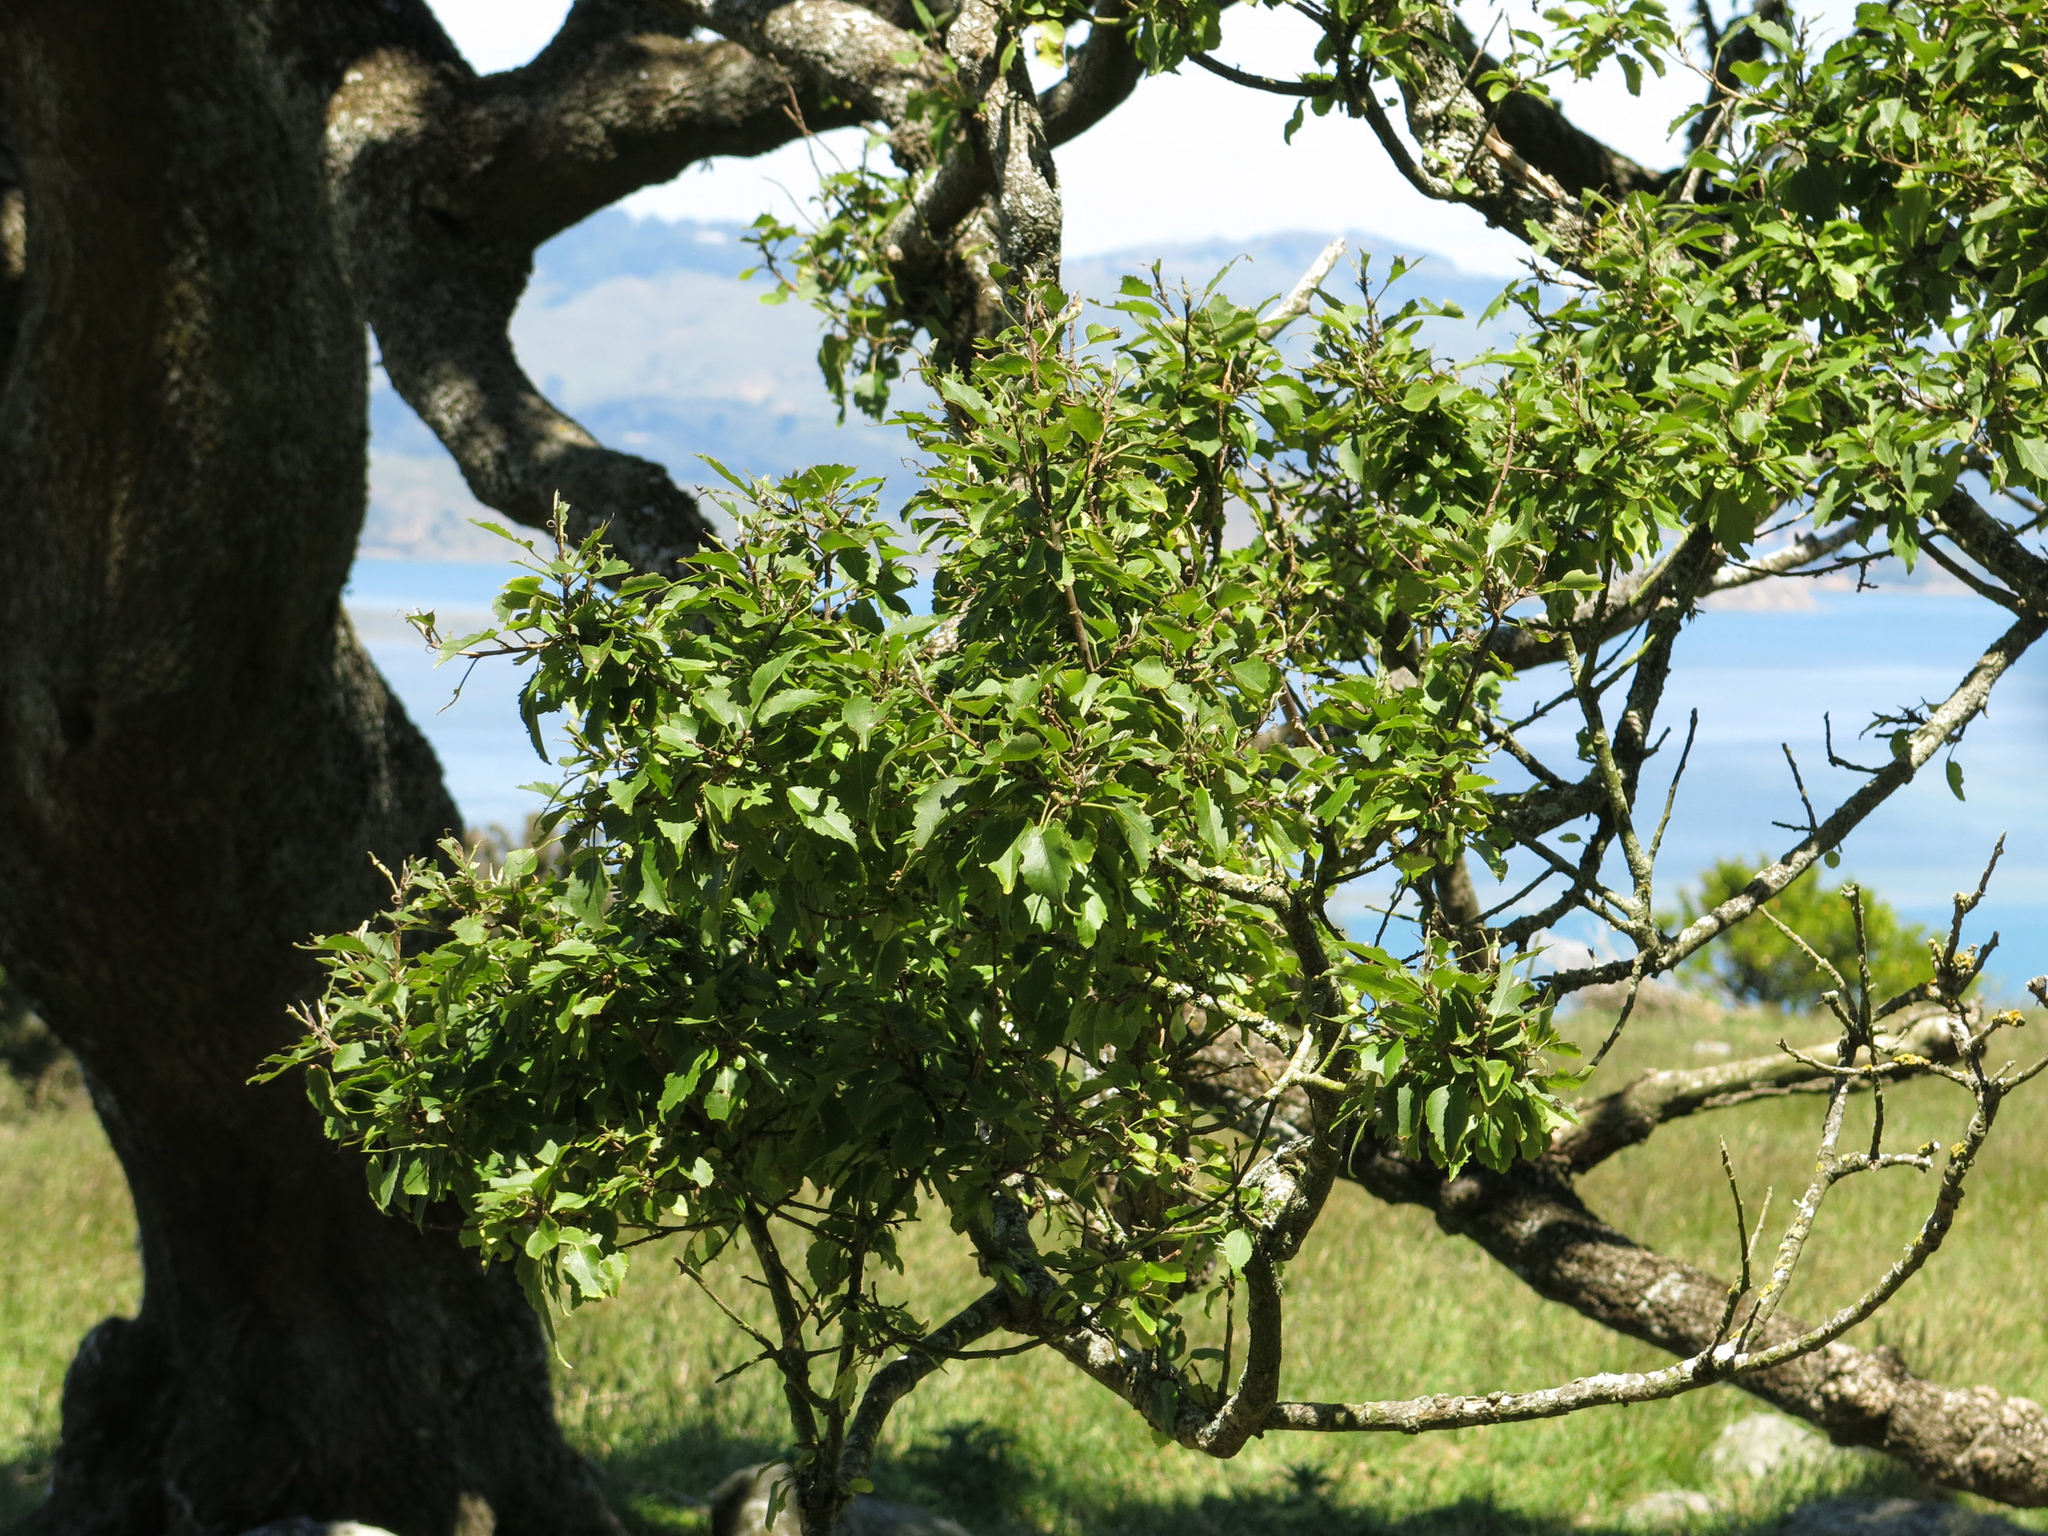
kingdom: Plantae
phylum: Tracheophyta
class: Magnoliopsida
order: Malvales
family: Malvaceae
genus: Plagianthus
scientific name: Plagianthus regius
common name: Manatu
